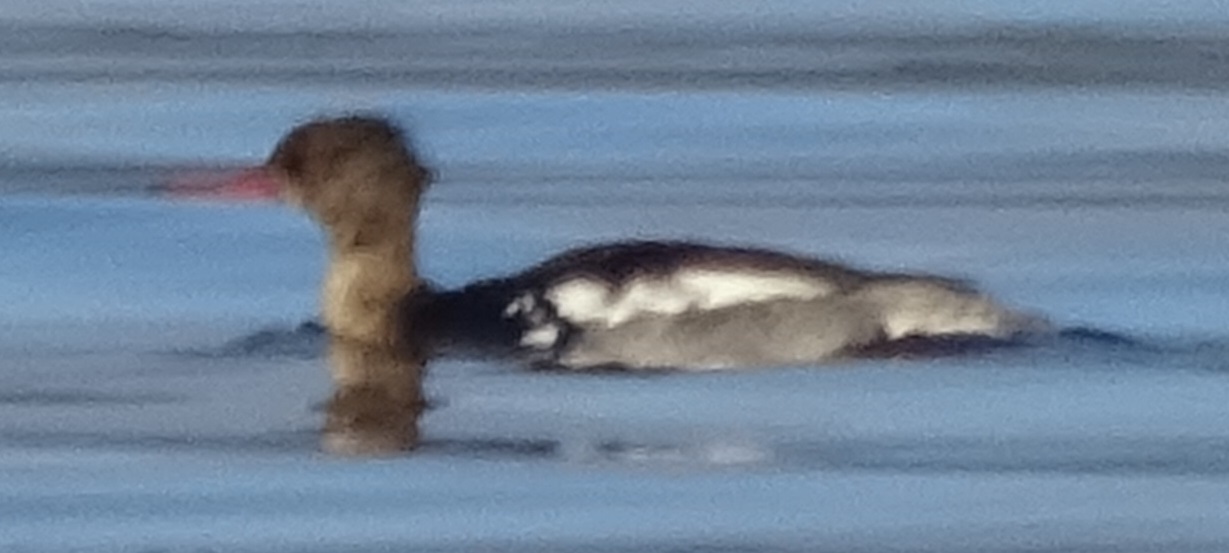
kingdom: Animalia
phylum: Chordata
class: Aves
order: Anseriformes
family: Anatidae
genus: Mergus
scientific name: Mergus serrator
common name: Red-breasted merganser
